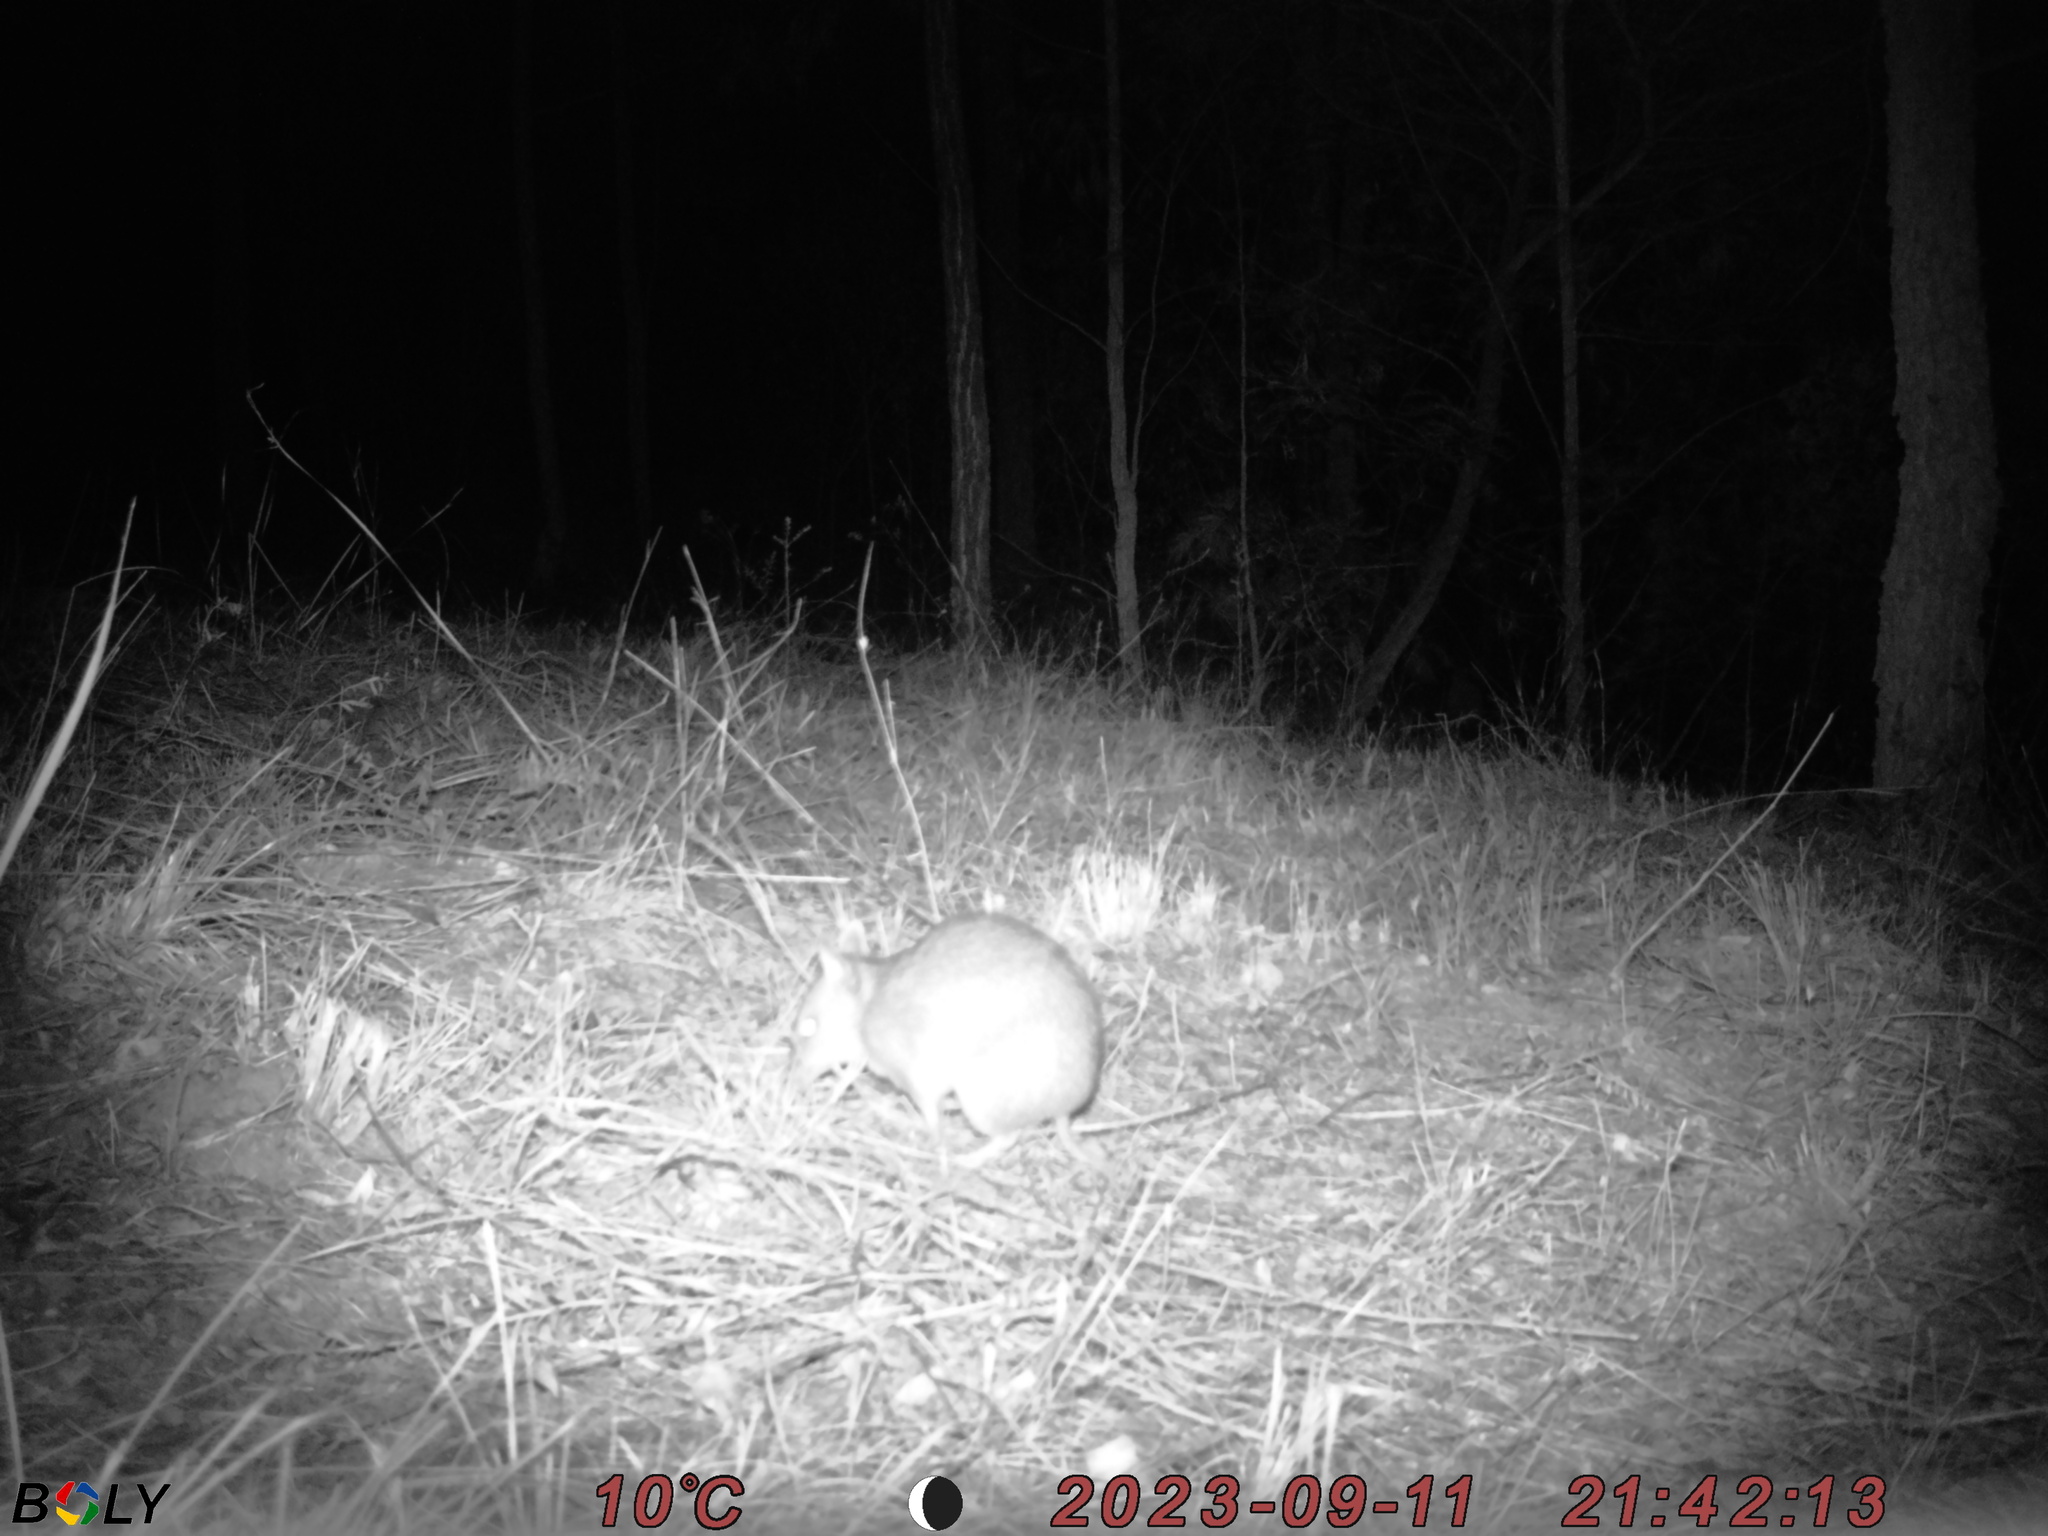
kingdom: Animalia
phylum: Chordata
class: Mammalia
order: Peramelemorphia
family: Peramelidae
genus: Perameles
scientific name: Perameles nasuta
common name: Long-nosed bandicoot
